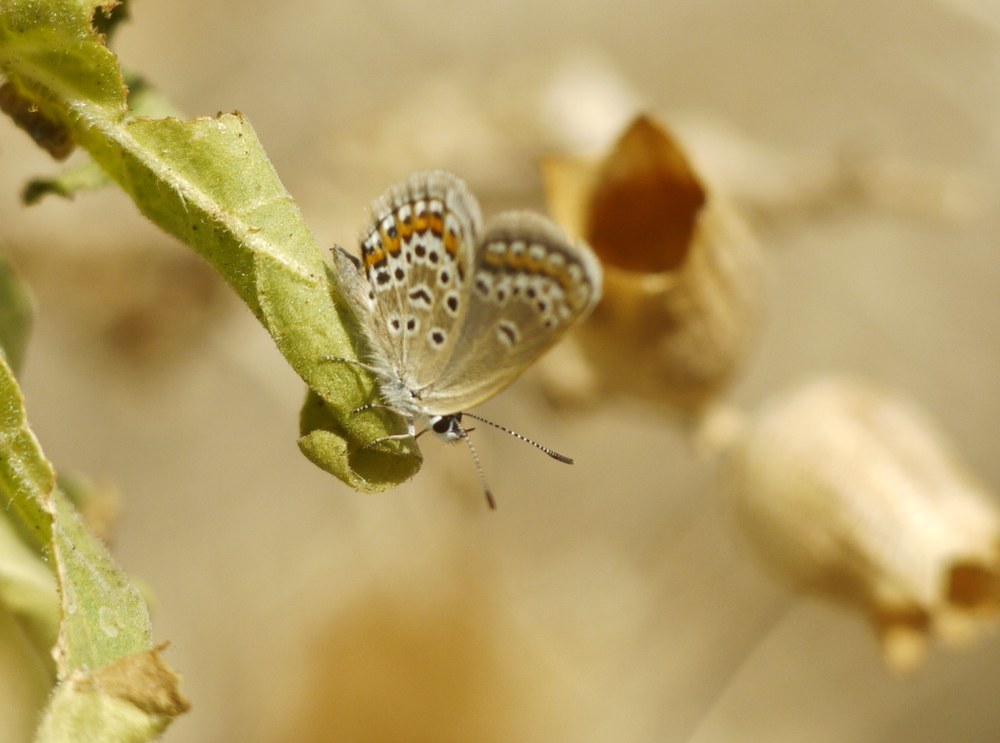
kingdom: Animalia
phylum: Arthropoda
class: Insecta
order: Lepidoptera
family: Lycaenidae
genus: Plebejus
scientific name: Plebejus argus
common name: Silver-studded blue
